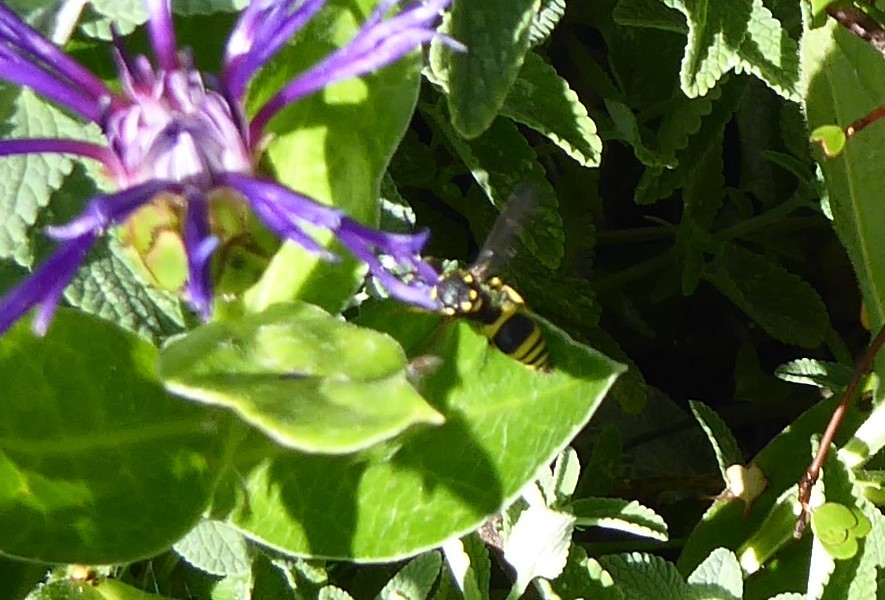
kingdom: Animalia
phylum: Arthropoda
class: Insecta
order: Hymenoptera
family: Vespidae
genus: Ancistrocerus
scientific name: Ancistrocerus gazella
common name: European tube wasp
